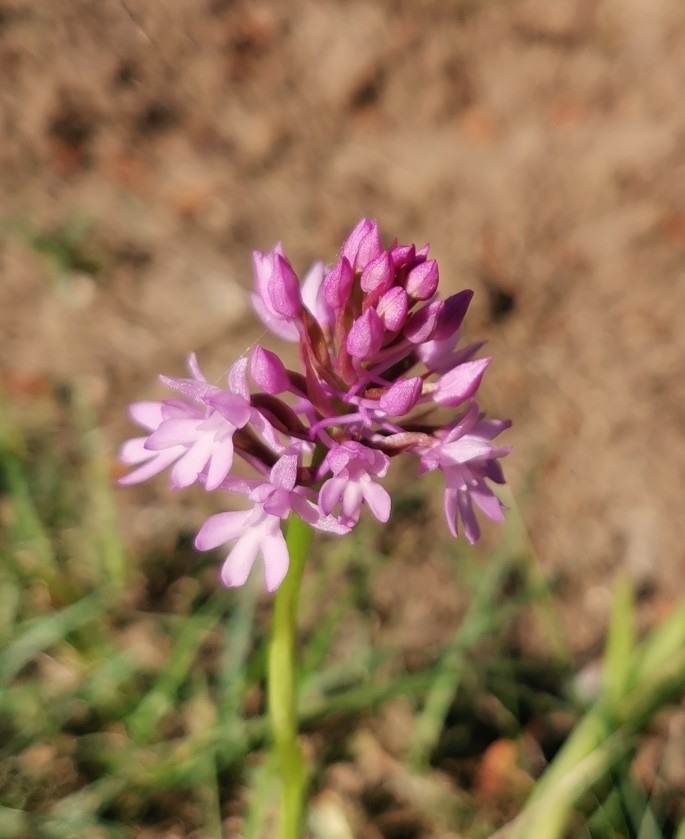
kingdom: Plantae
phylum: Tracheophyta
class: Liliopsida
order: Asparagales
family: Orchidaceae
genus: Anacamptis
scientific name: Anacamptis pyramidalis
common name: Pyramidal orchid
